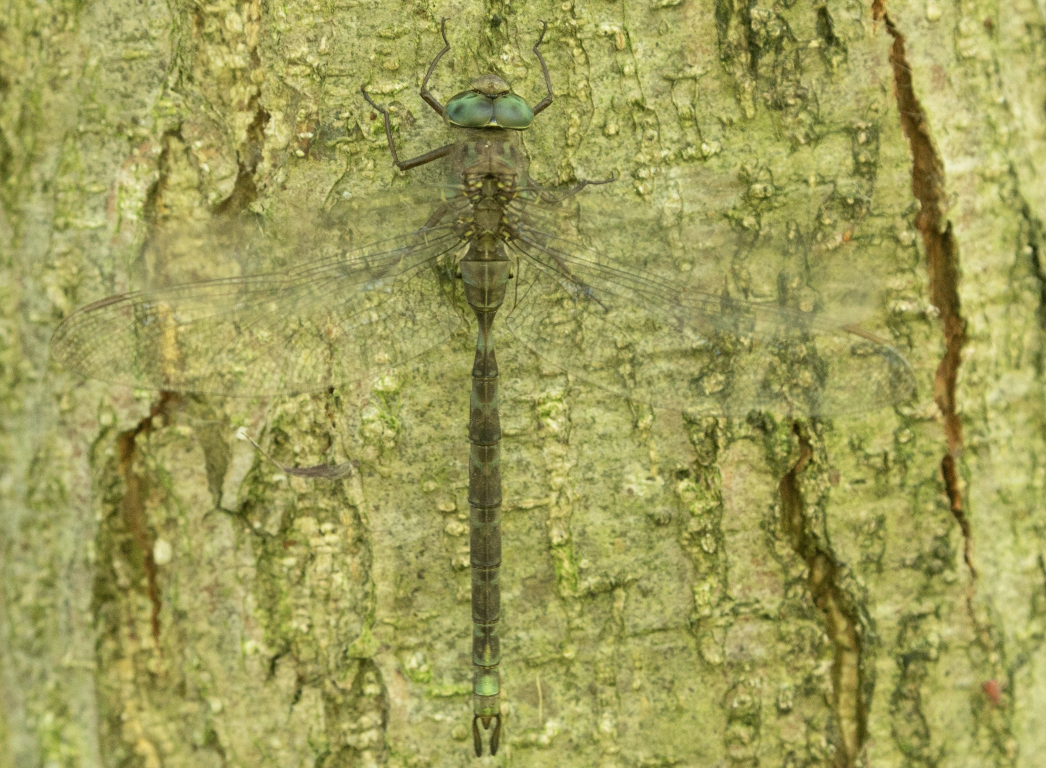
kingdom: Animalia
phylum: Arthropoda
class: Insecta
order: Odonata
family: Aeshnidae
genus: Boyeria
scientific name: Boyeria irene
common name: Western spectre
